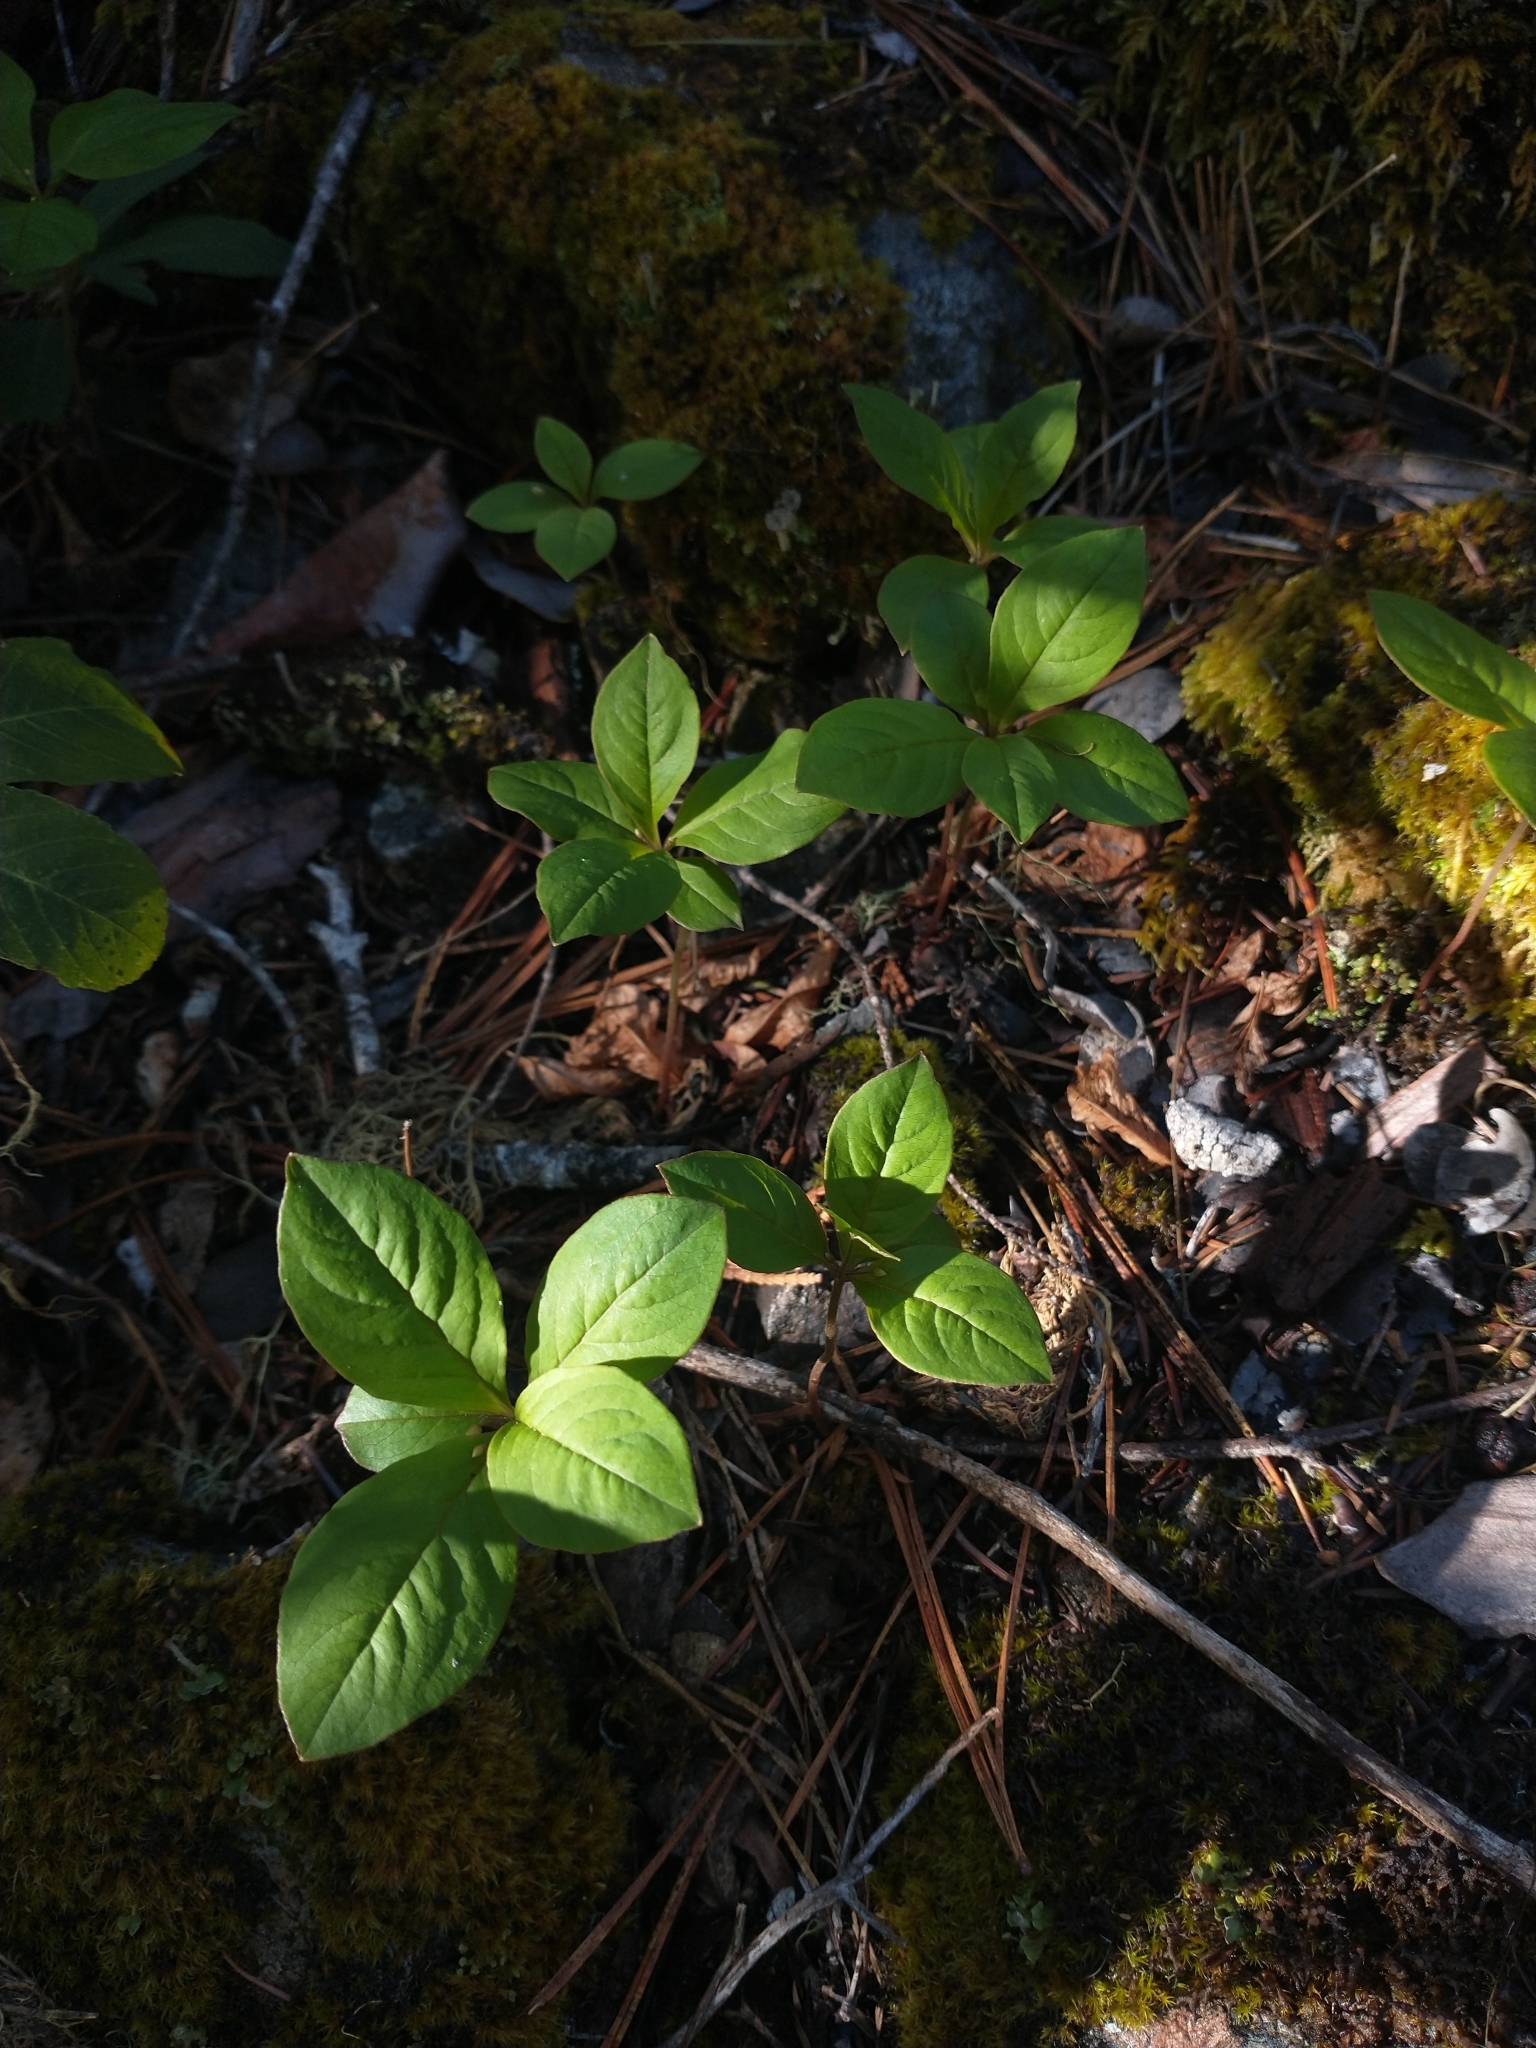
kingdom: Plantae
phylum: Tracheophyta
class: Magnoliopsida
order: Ericales
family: Primulaceae
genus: Lysimachia
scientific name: Lysimachia latifolia
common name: Pacific starflower
